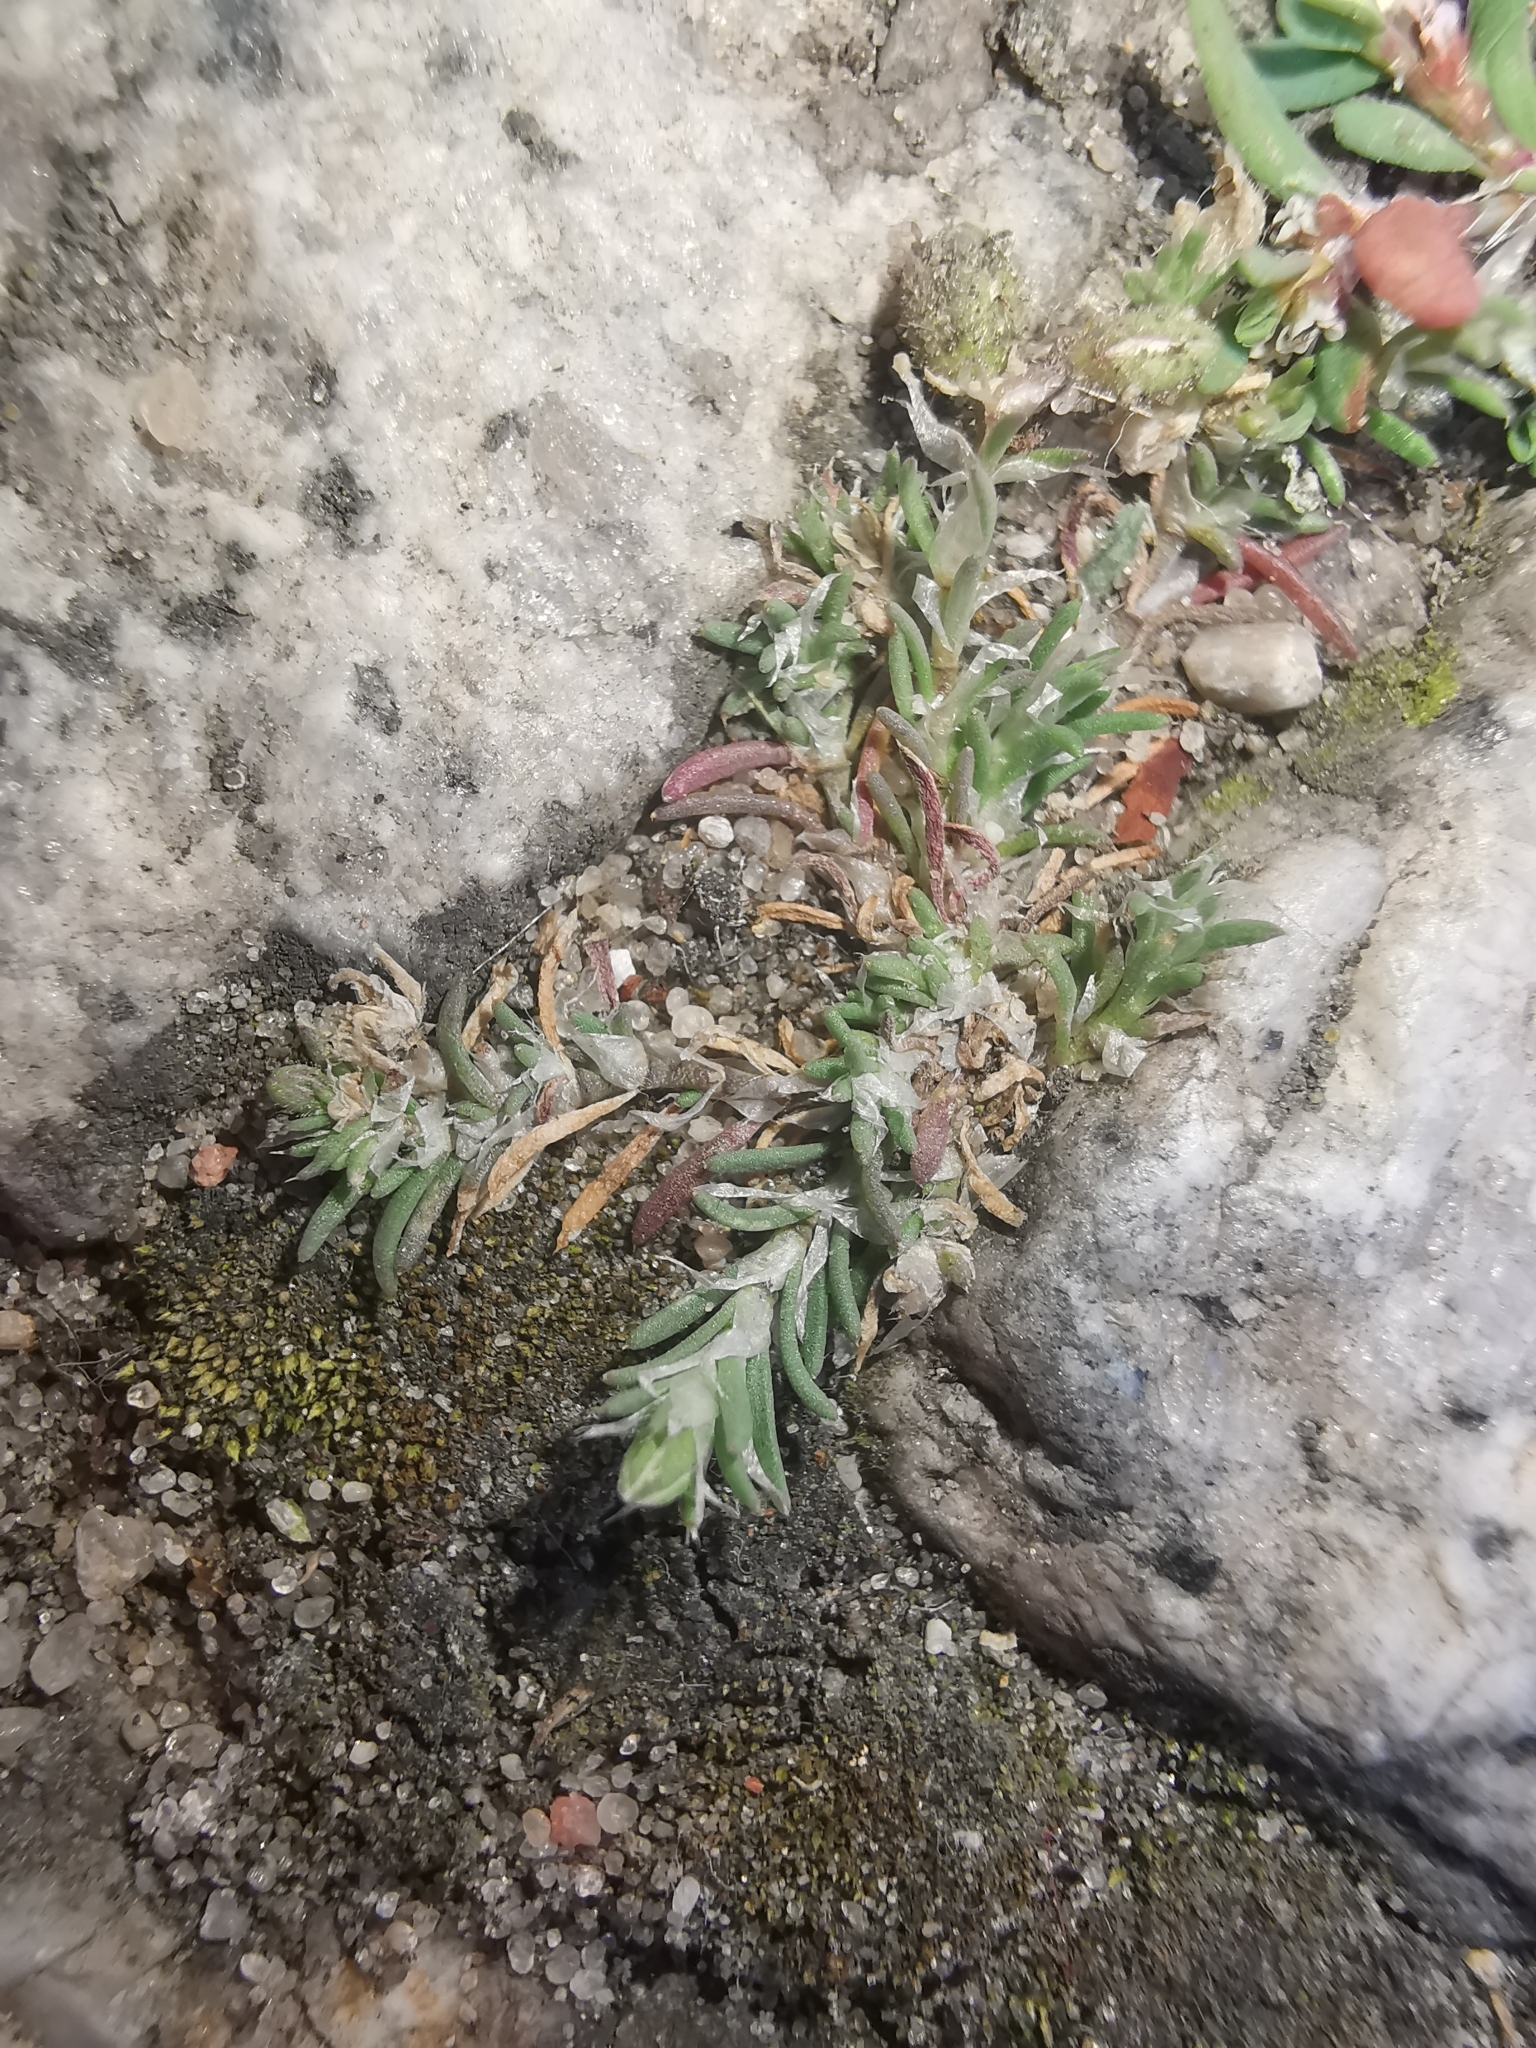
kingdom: Plantae
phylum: Tracheophyta
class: Magnoliopsida
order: Caryophyllales
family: Caryophyllaceae
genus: Spergularia
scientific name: Spergularia rubra
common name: Red sand-spurrey
